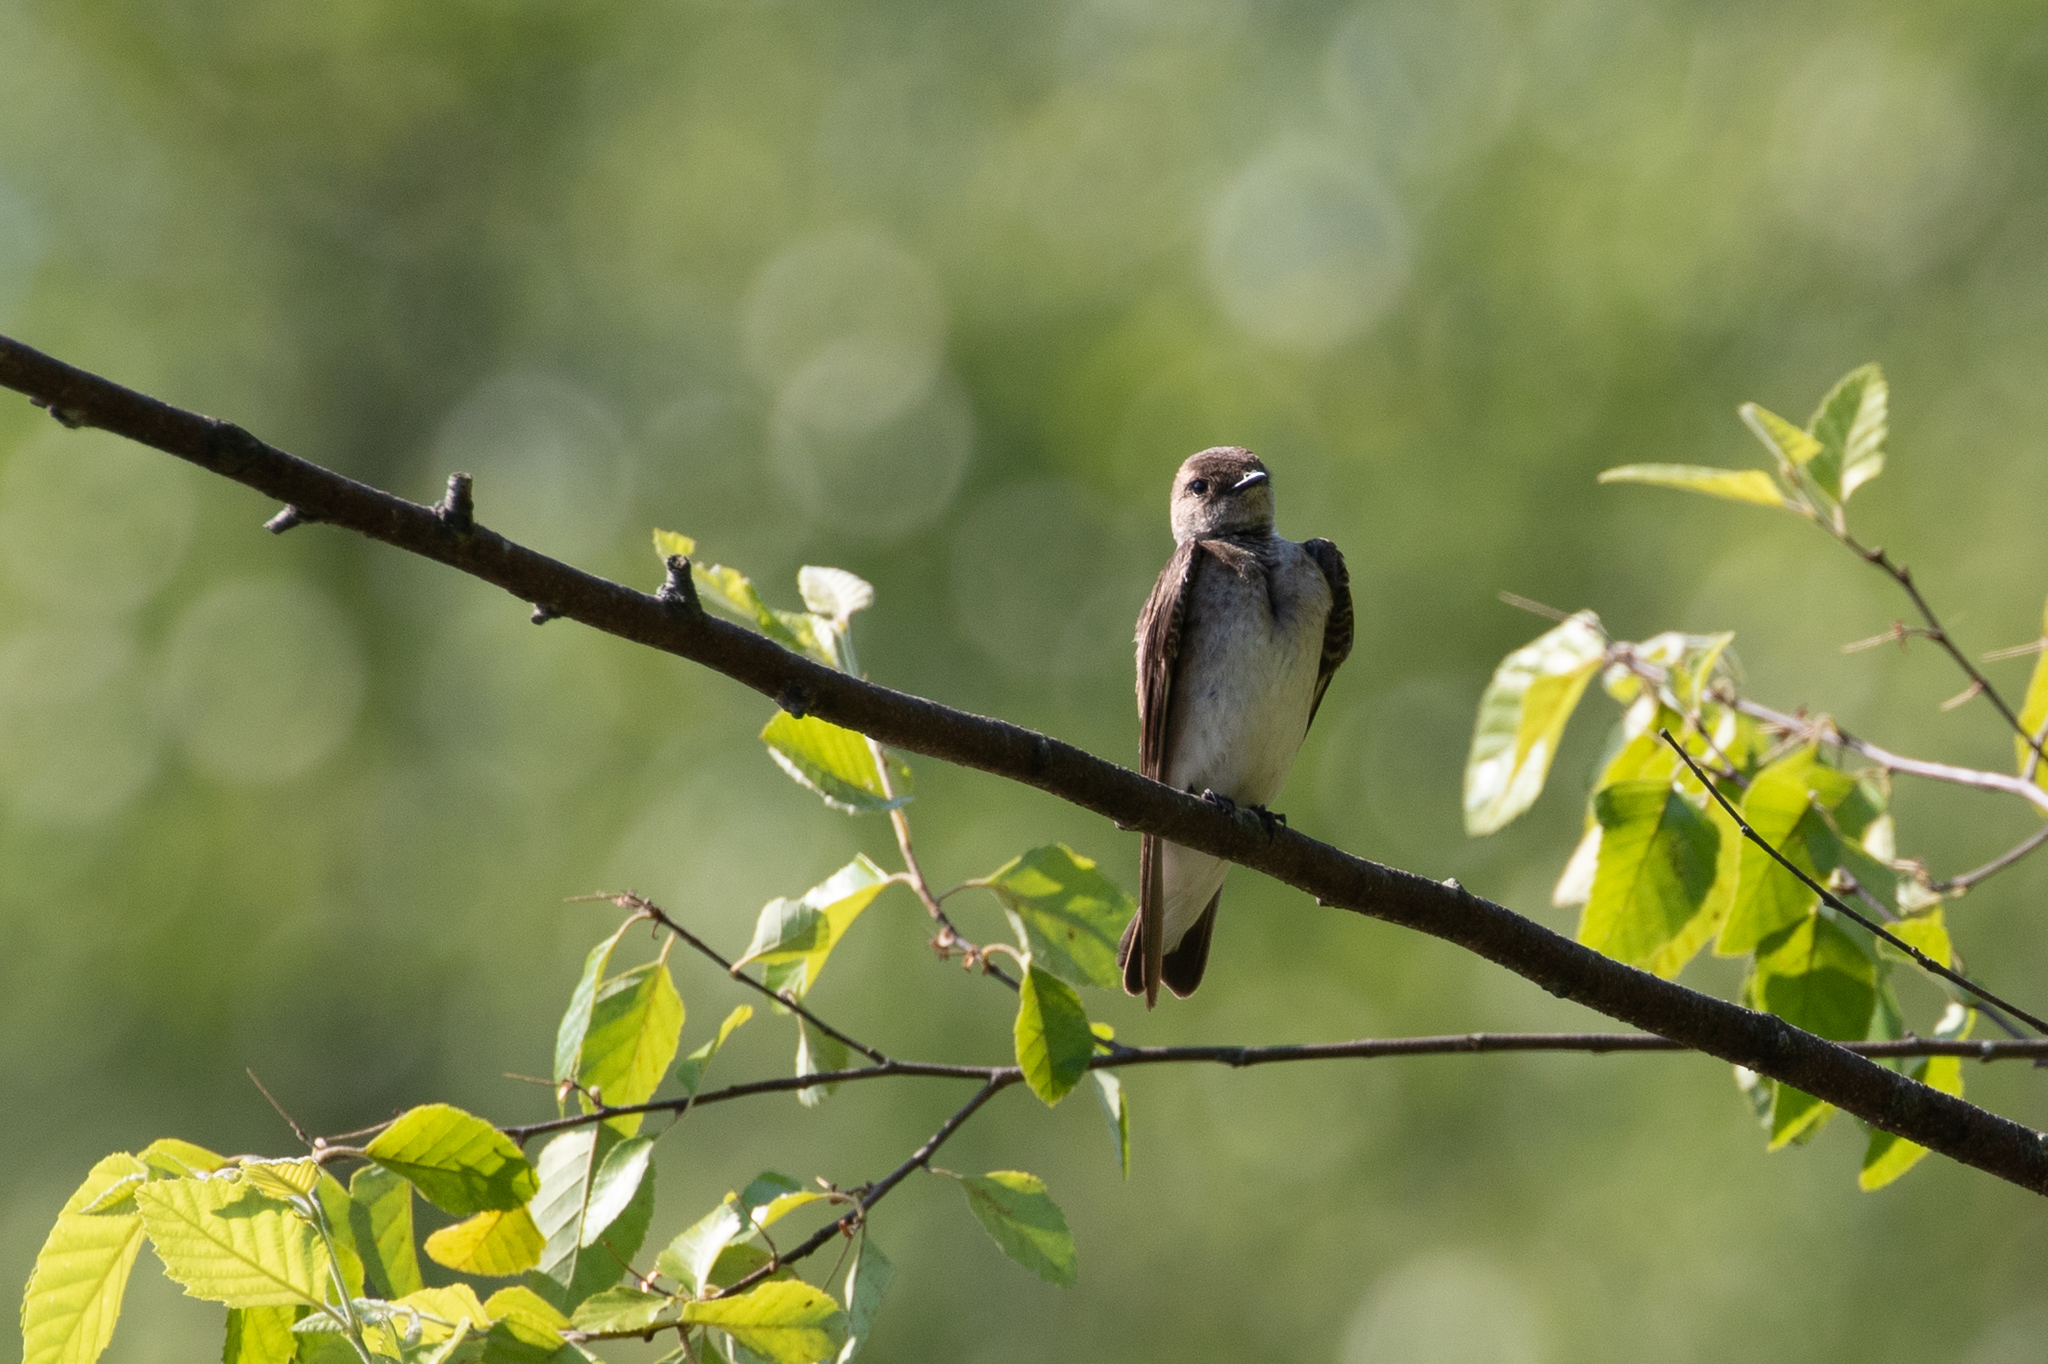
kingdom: Animalia
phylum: Chordata
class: Aves
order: Passeriformes
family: Hirundinidae
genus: Stelgidopteryx
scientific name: Stelgidopteryx serripennis
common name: Northern rough-winged swallow
